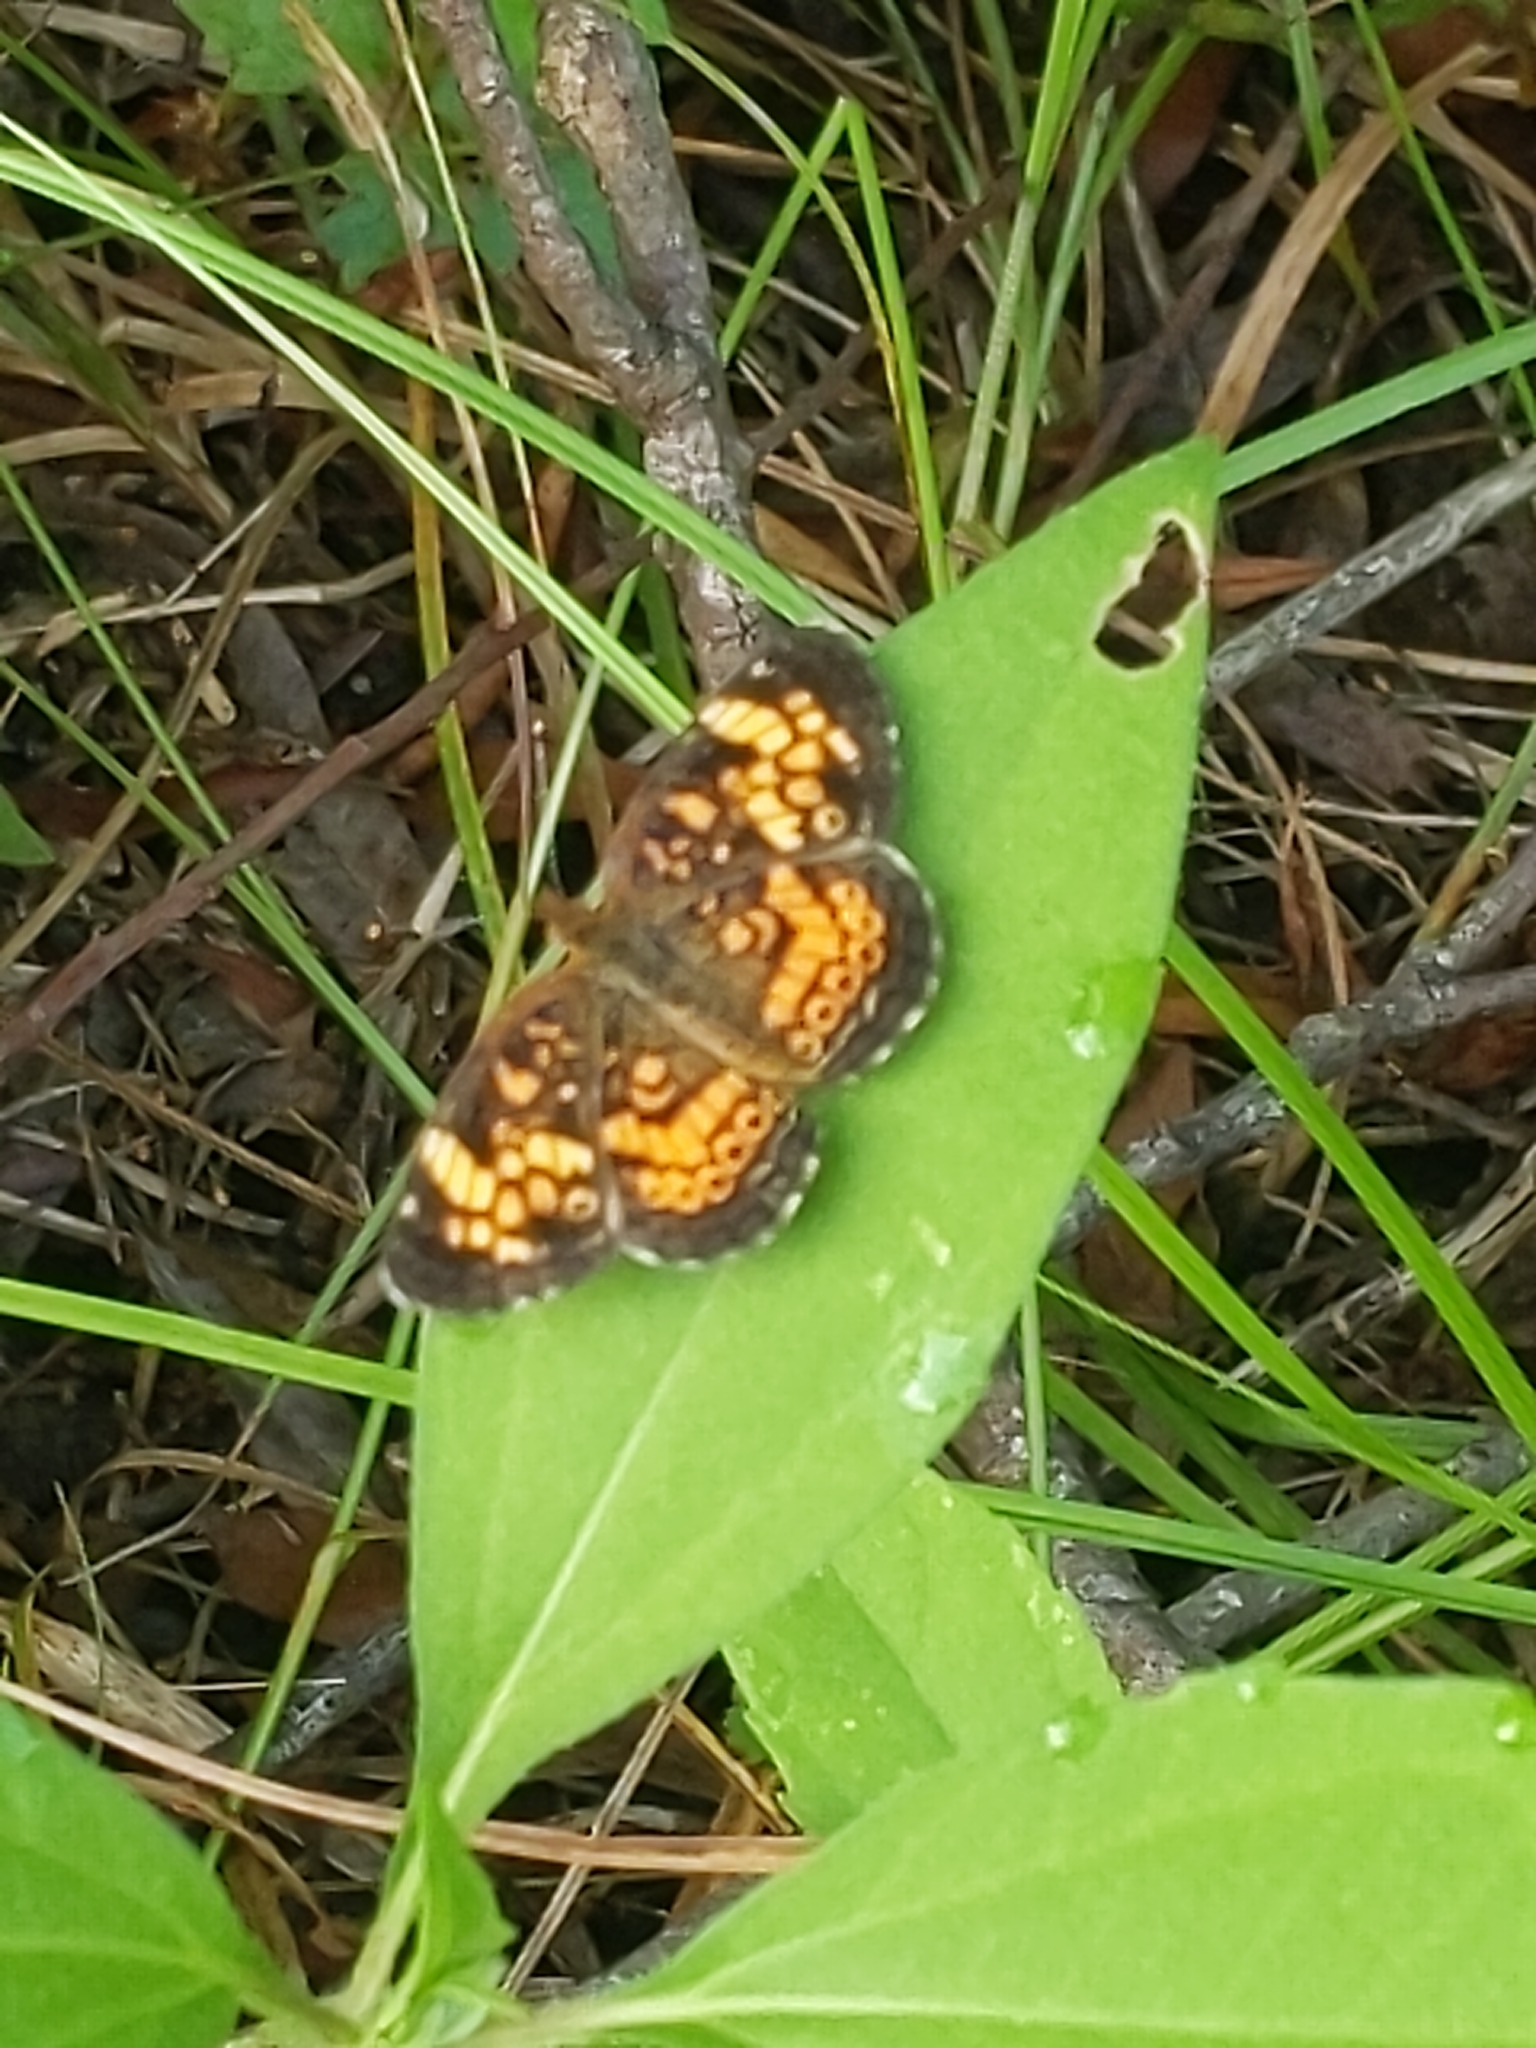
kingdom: Animalia
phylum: Arthropoda
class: Insecta
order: Lepidoptera
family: Nymphalidae
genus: Phyciodes
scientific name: Phyciodes tharos
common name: Pearl crescent
